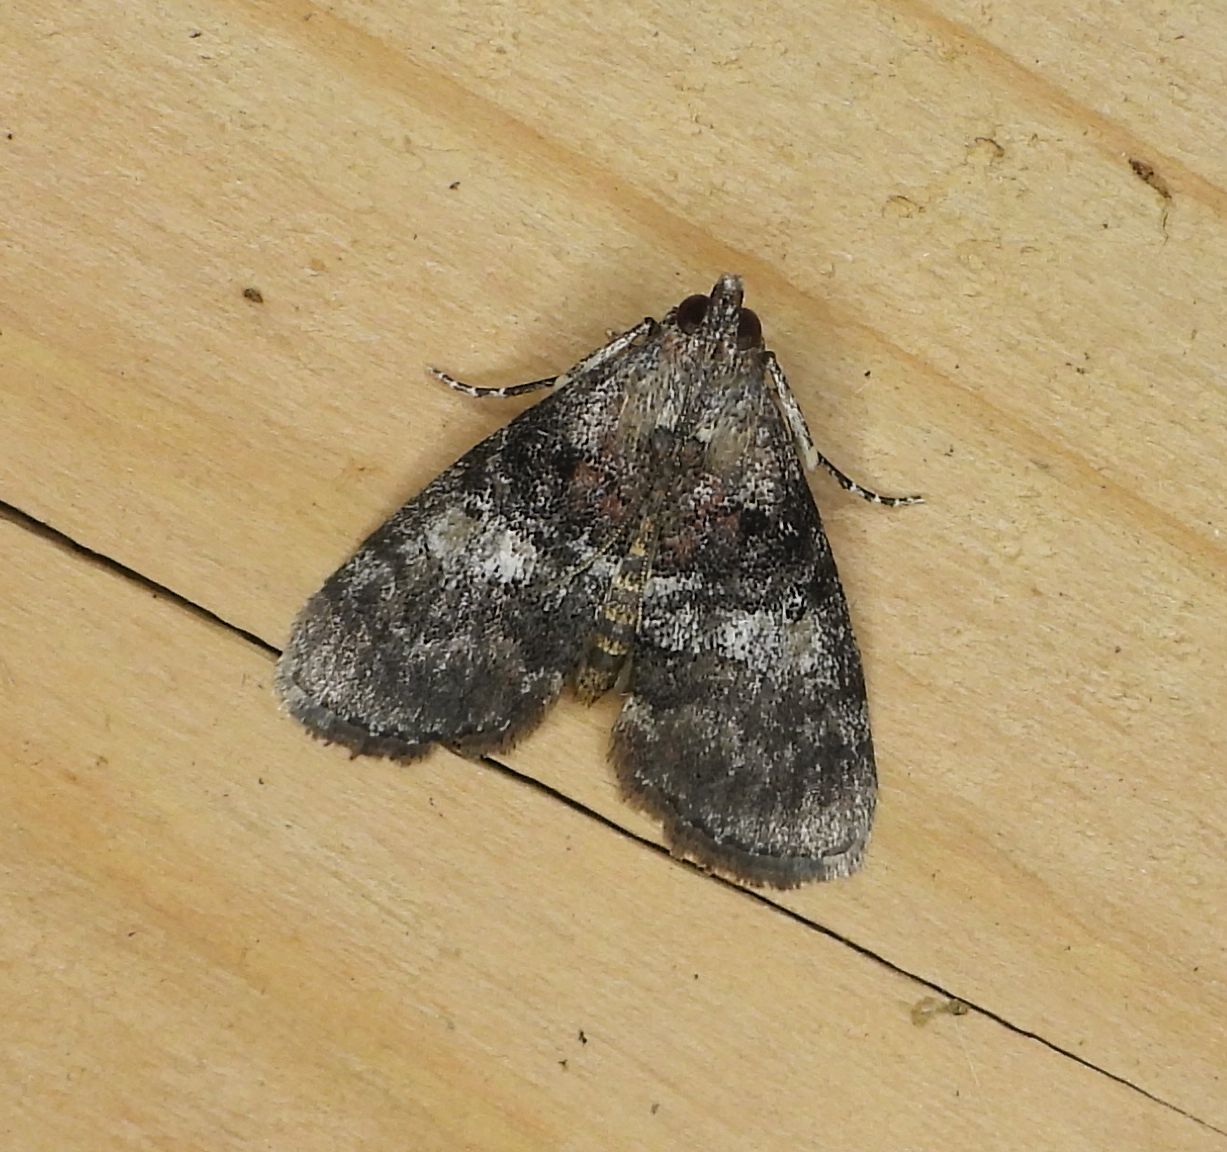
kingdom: Animalia
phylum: Arthropoda
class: Insecta
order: Lepidoptera
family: Pyralidae
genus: Pococera
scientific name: Pococera asperatella
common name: Maple webworm moth
